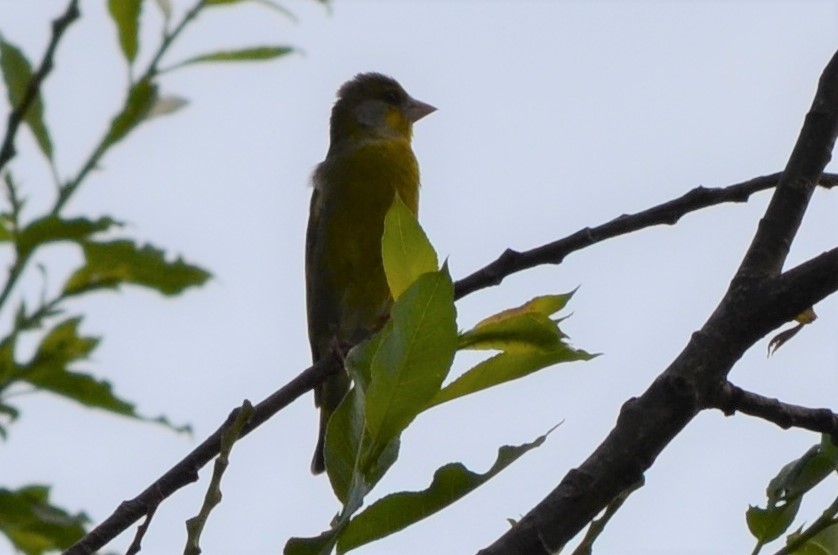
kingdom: Plantae
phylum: Tracheophyta
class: Liliopsida
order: Poales
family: Poaceae
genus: Chloris
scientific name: Chloris chloris
